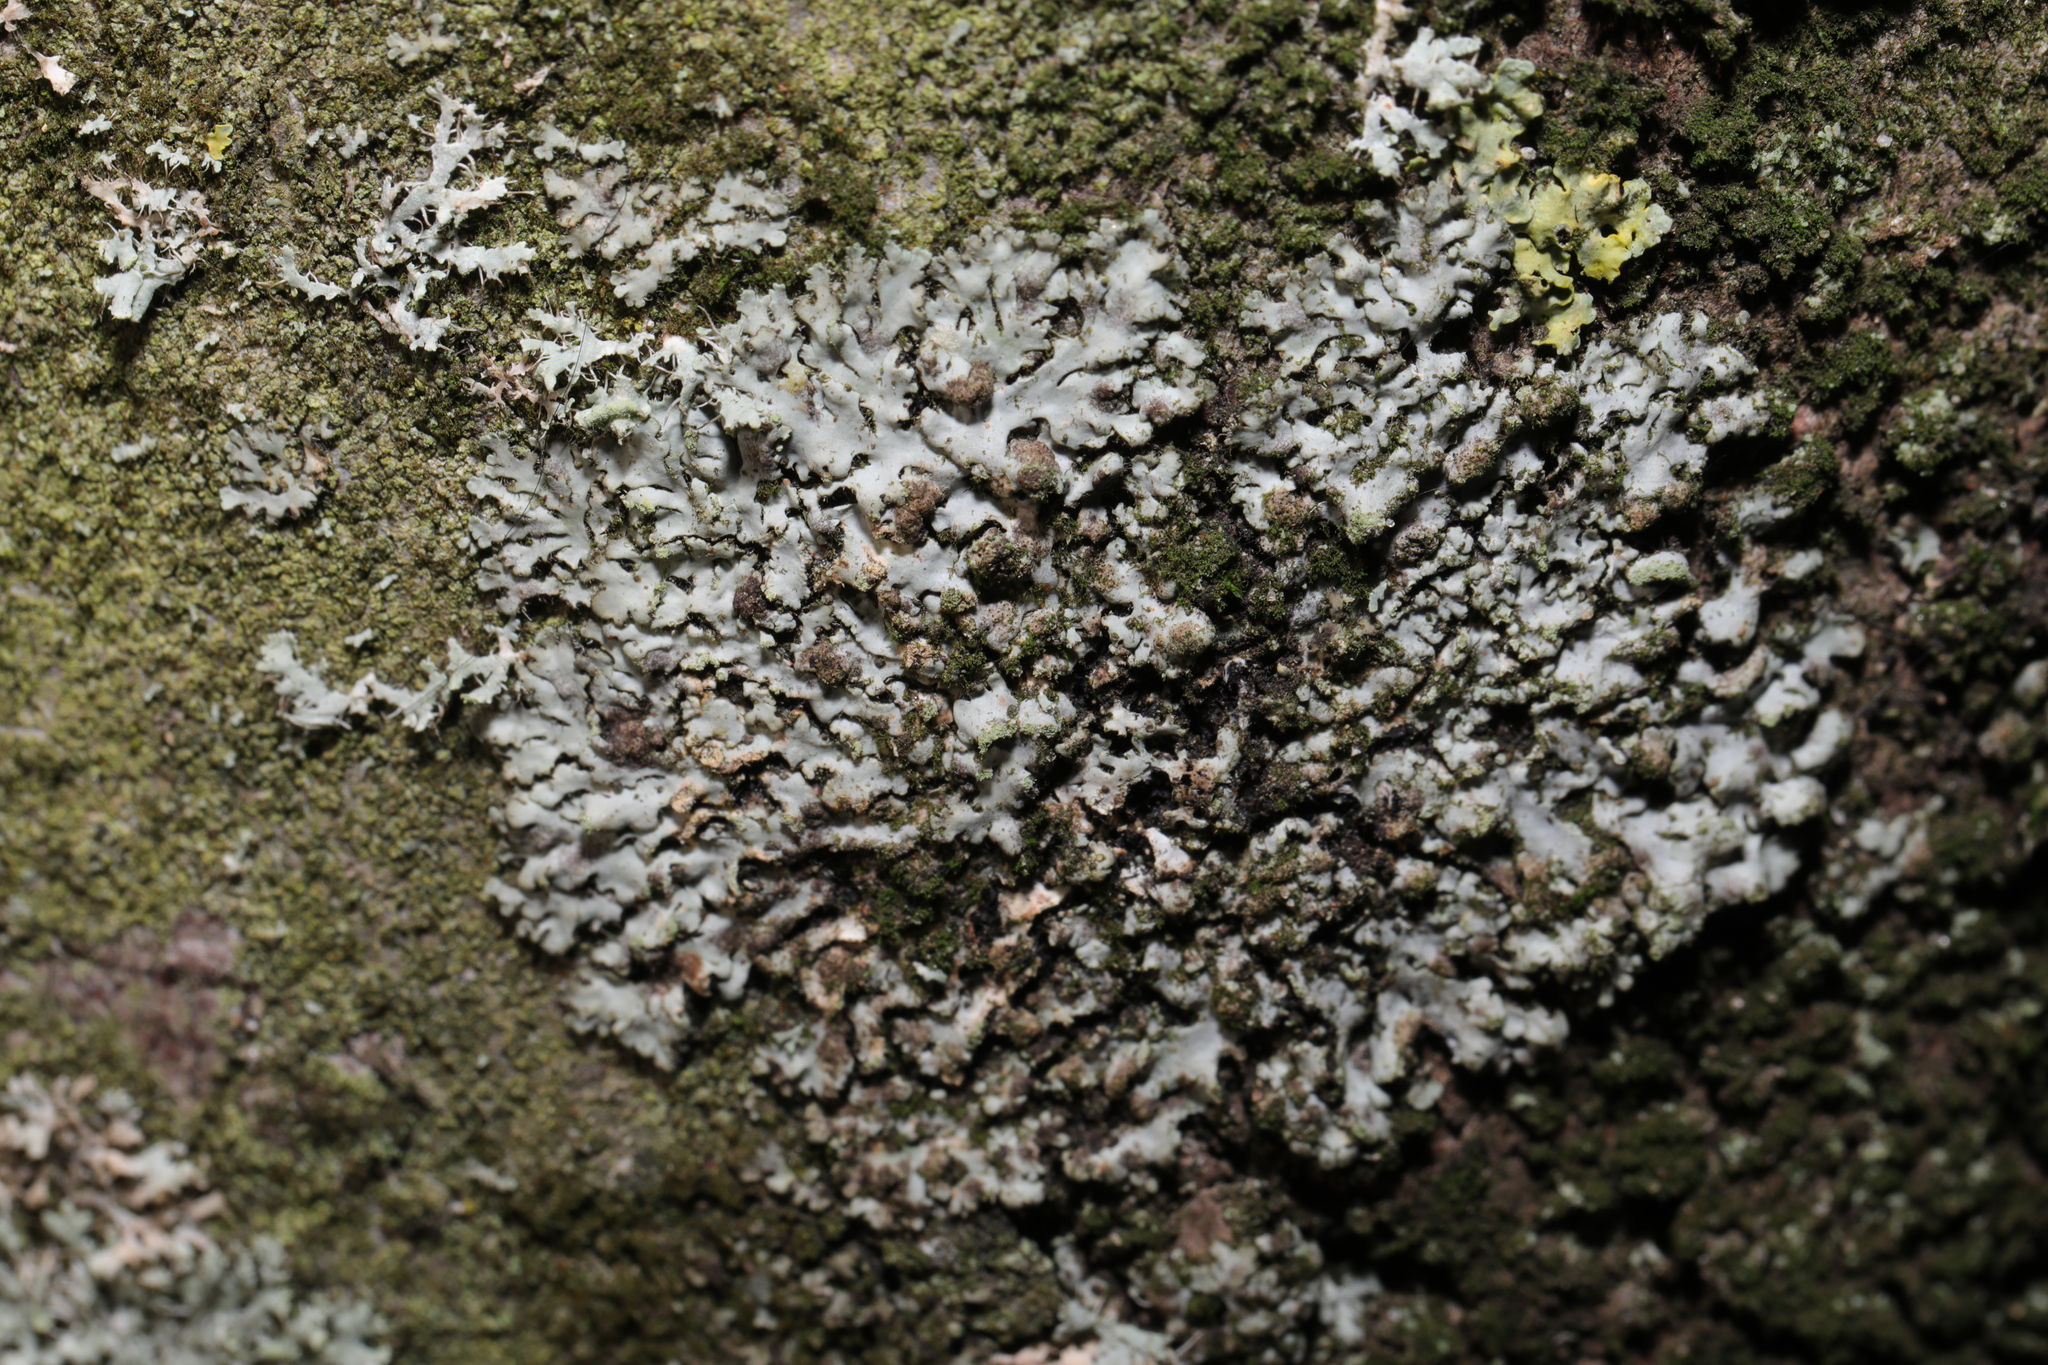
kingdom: Fungi
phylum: Ascomycota
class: Lecanoromycetes
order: Caliciales
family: Physciaceae
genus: Phaeophyscia
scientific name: Phaeophyscia orbicularis
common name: Mealy shadow lichen
